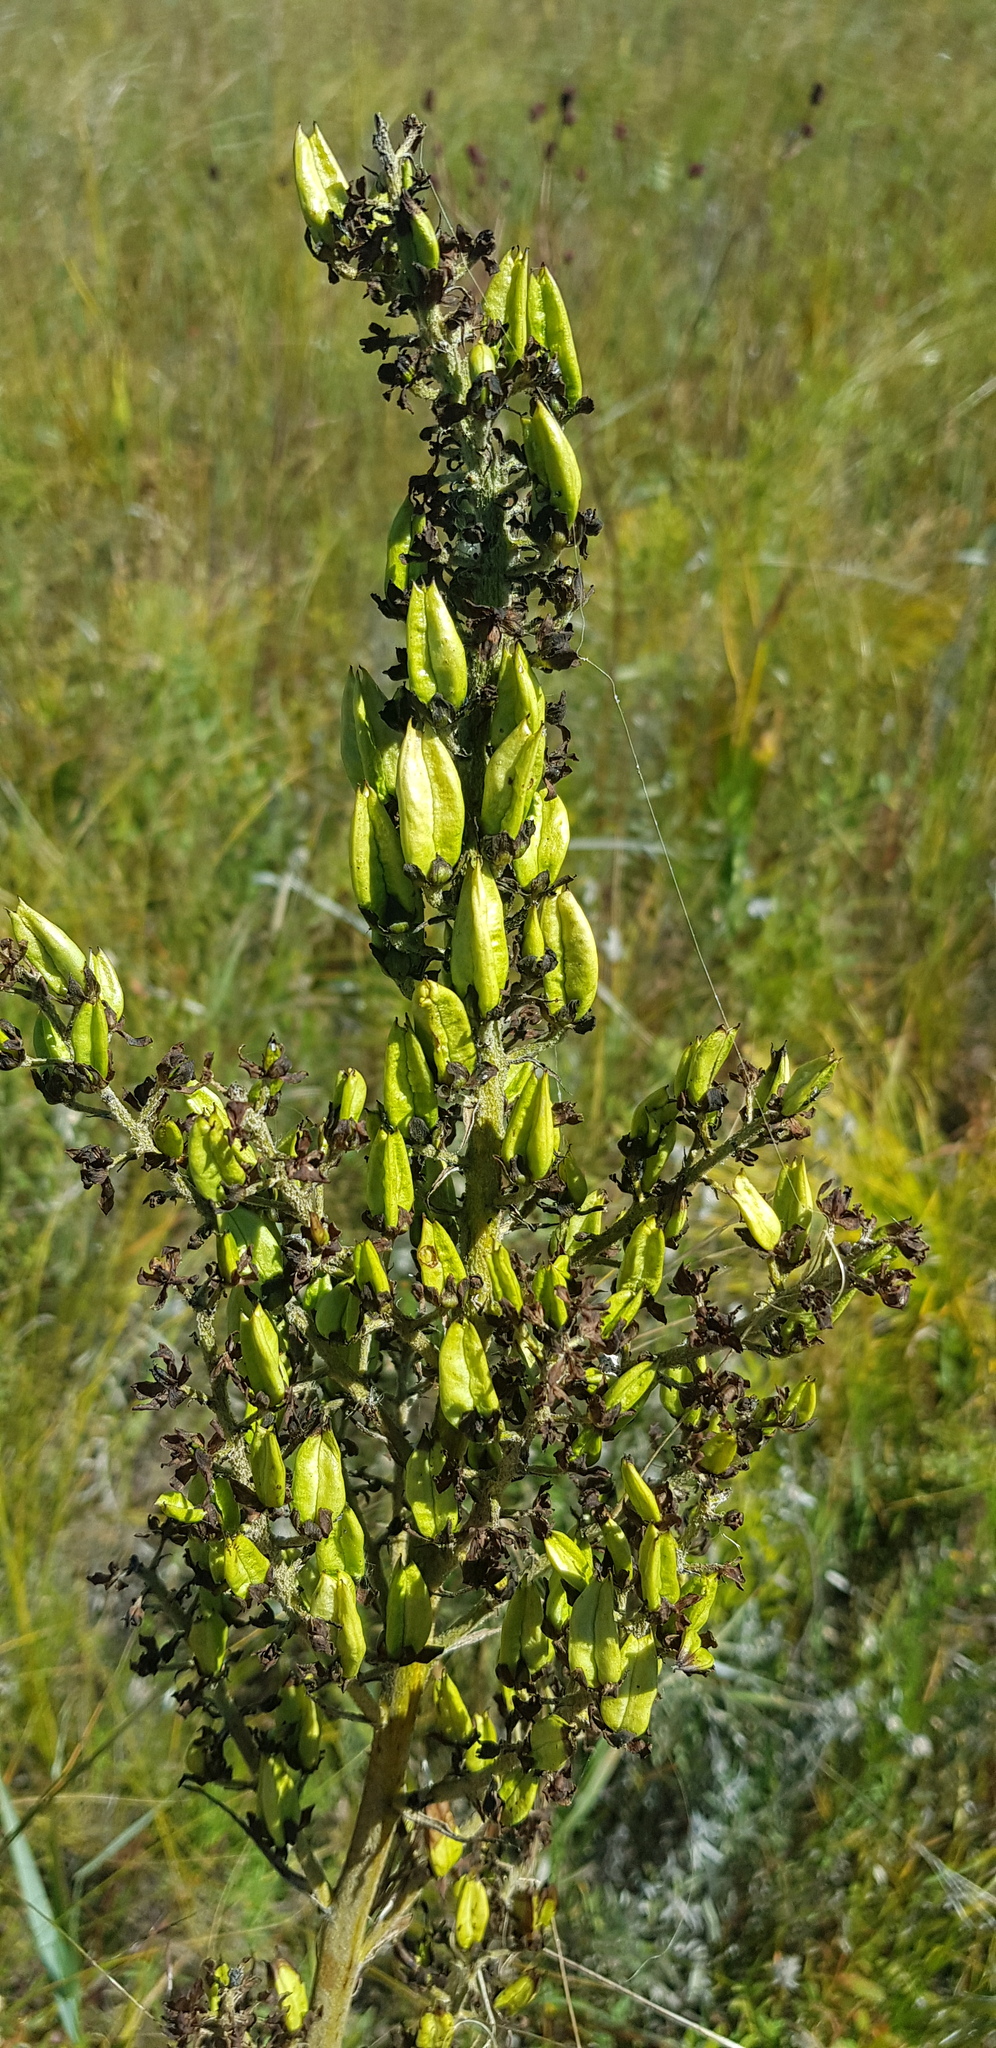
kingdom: Plantae
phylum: Tracheophyta
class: Liliopsida
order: Liliales
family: Melanthiaceae
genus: Veratrum
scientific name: Veratrum nigrum
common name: Black veratrum
